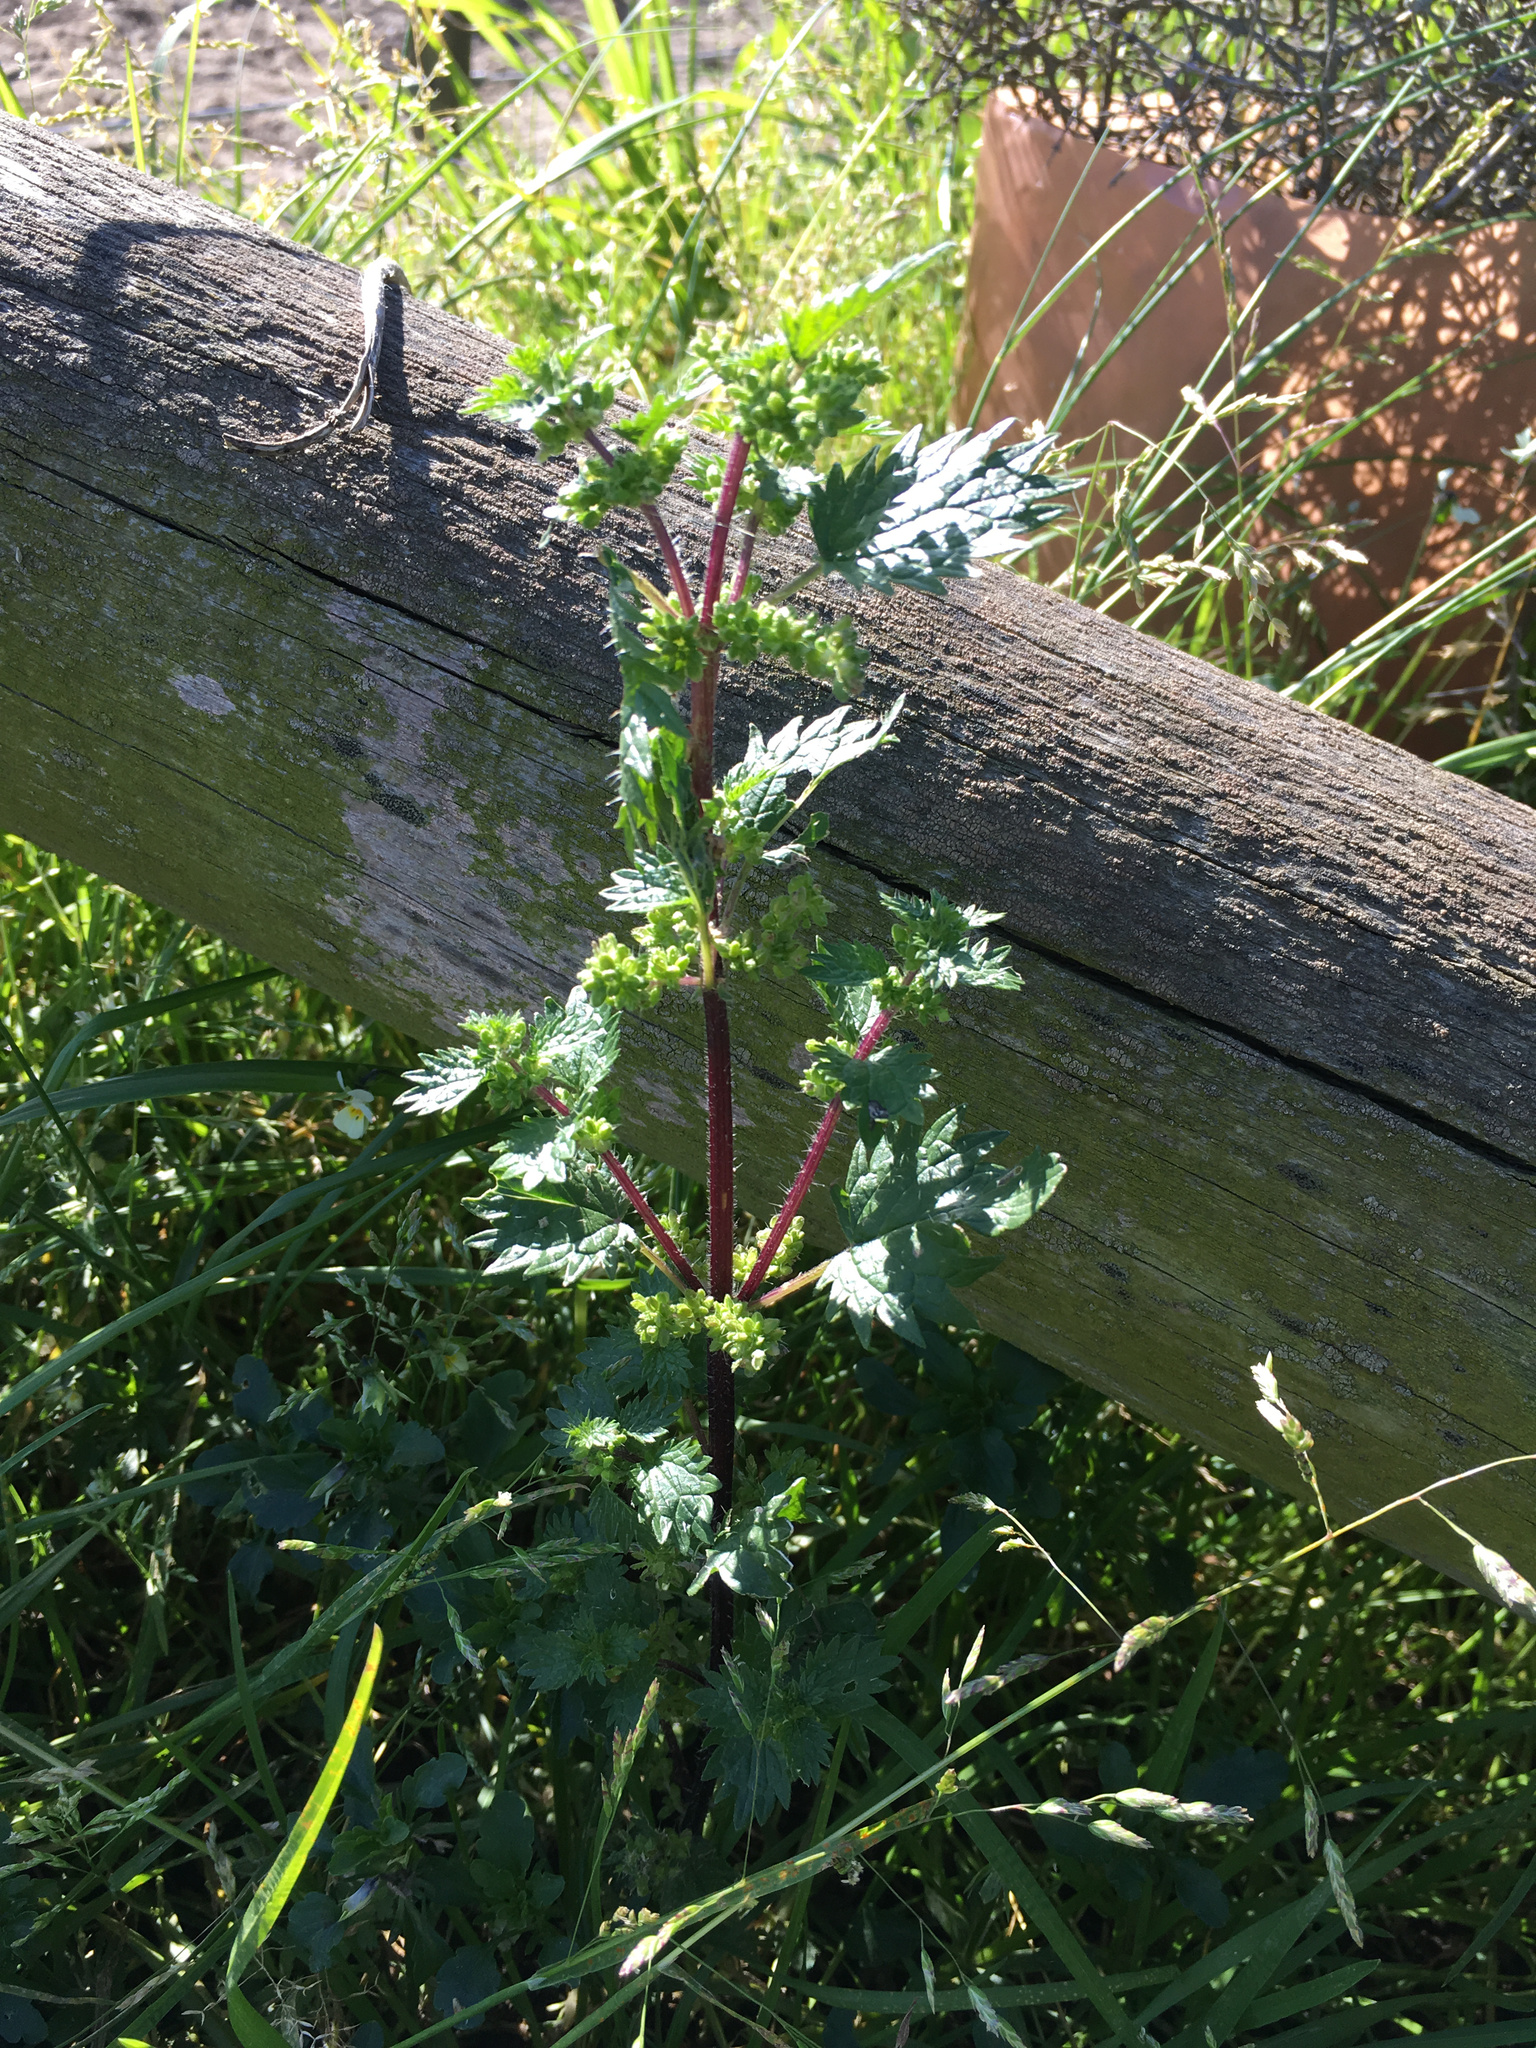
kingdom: Plantae
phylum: Tracheophyta
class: Magnoliopsida
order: Rosales
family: Urticaceae
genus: Urtica
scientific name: Urtica urens
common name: Dwarf nettle
